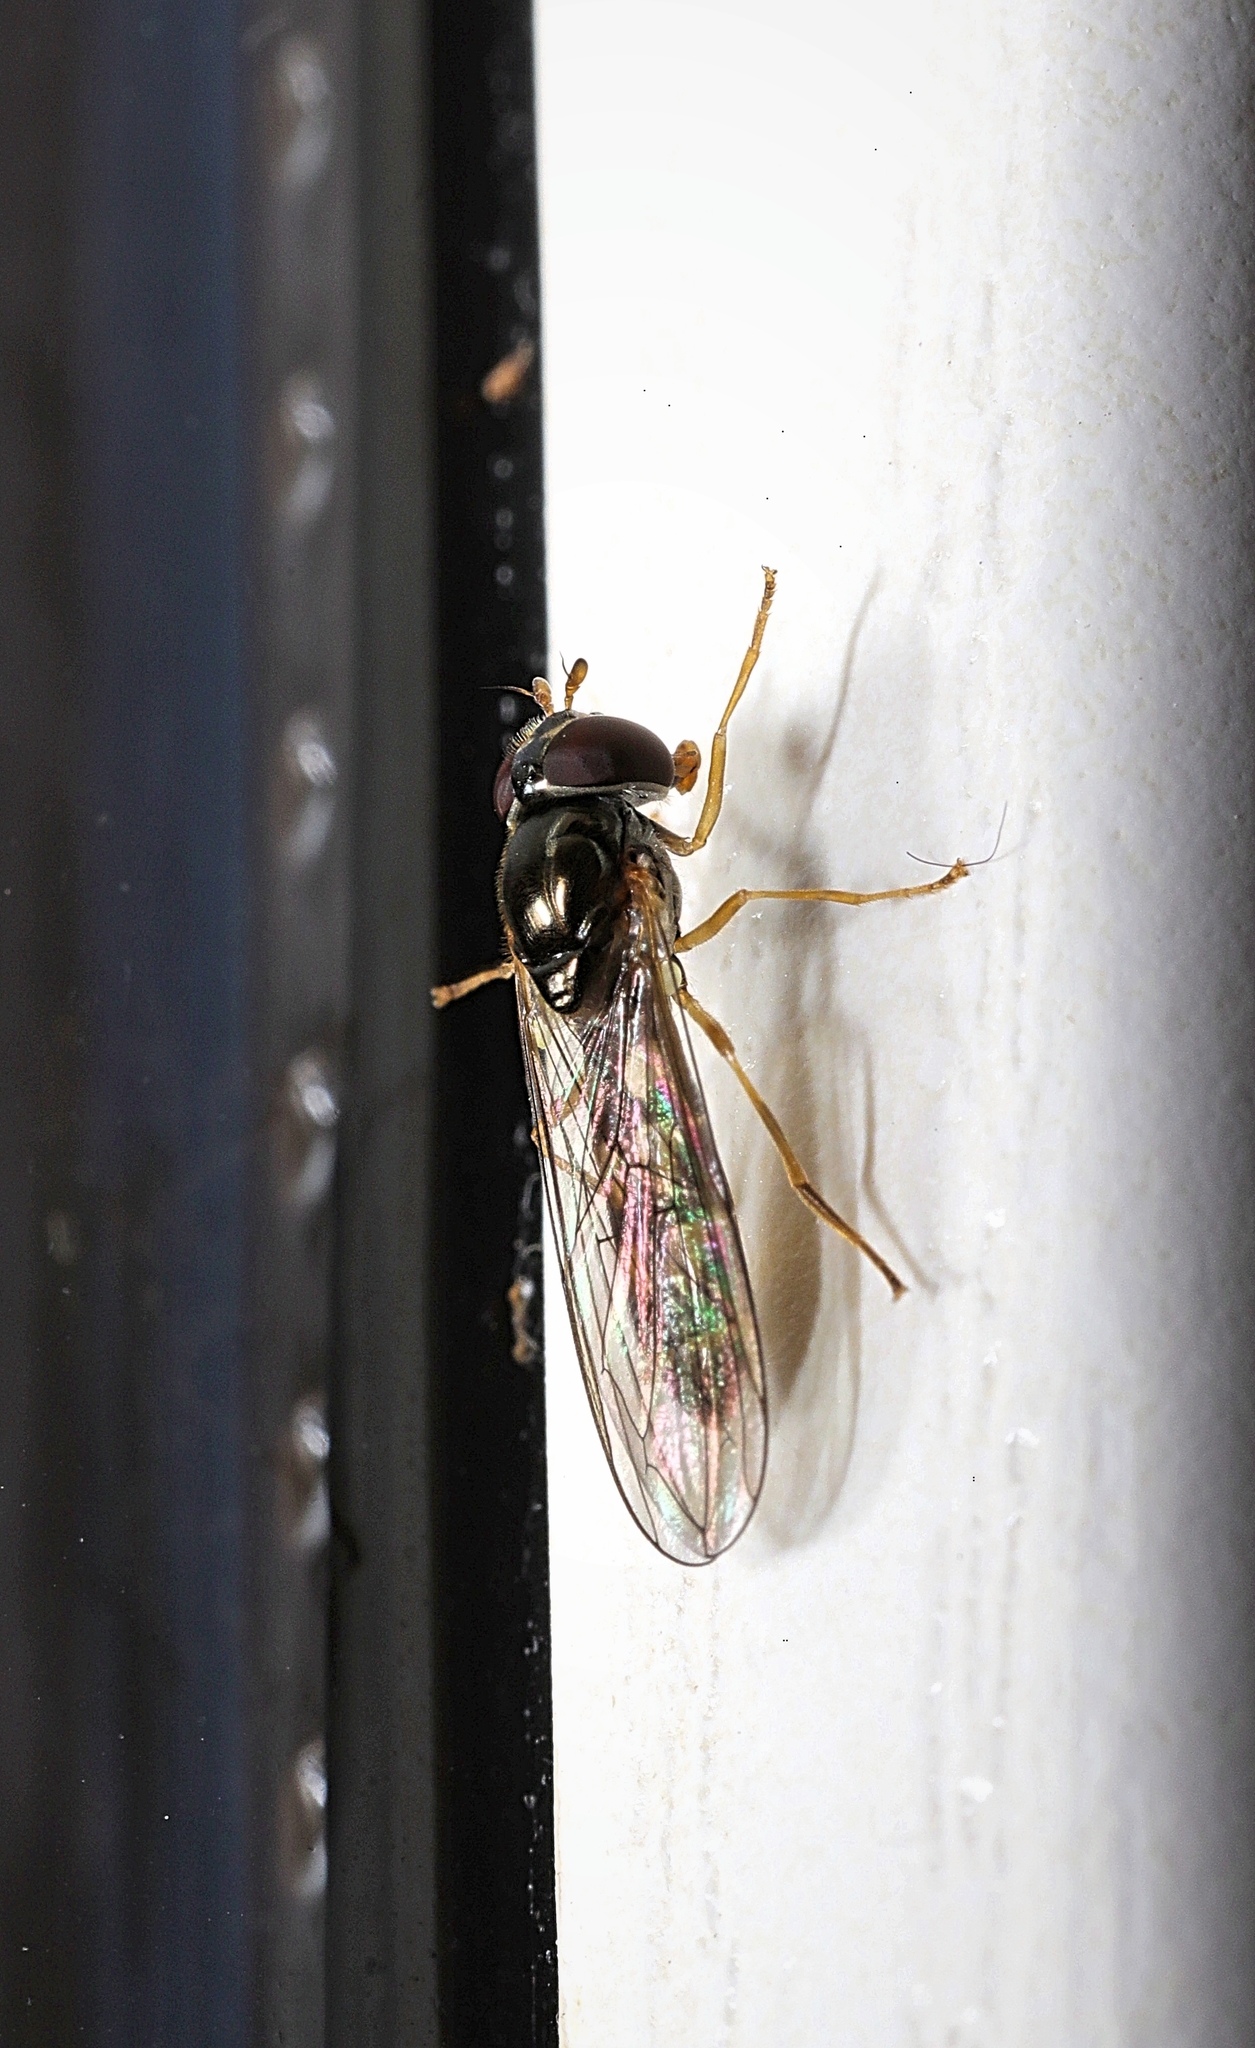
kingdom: Animalia
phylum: Arthropoda
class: Insecta
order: Diptera
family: Syrphidae
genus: Melanostoma
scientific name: Melanostoma scalare
